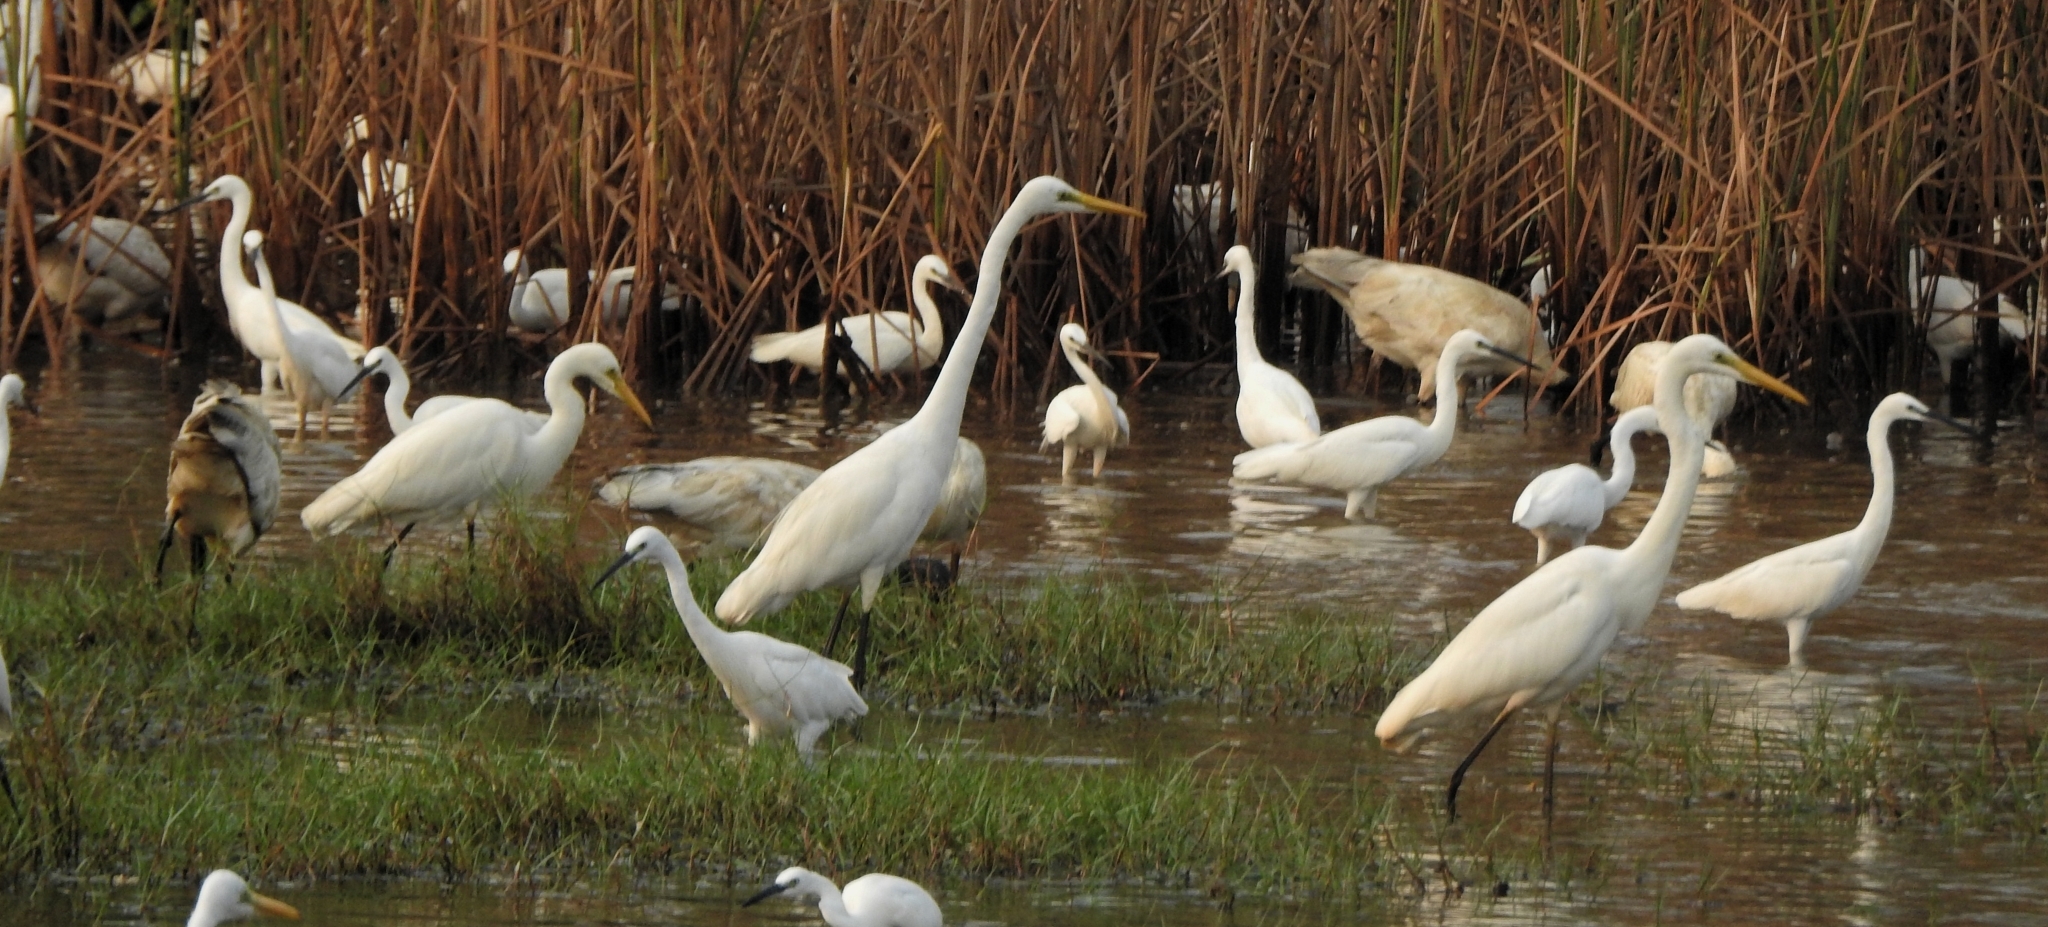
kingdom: Animalia
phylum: Chordata
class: Aves
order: Pelecaniformes
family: Threskiornithidae
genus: Threskiornis
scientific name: Threskiornis melanocephalus
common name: Black-headed ibis
